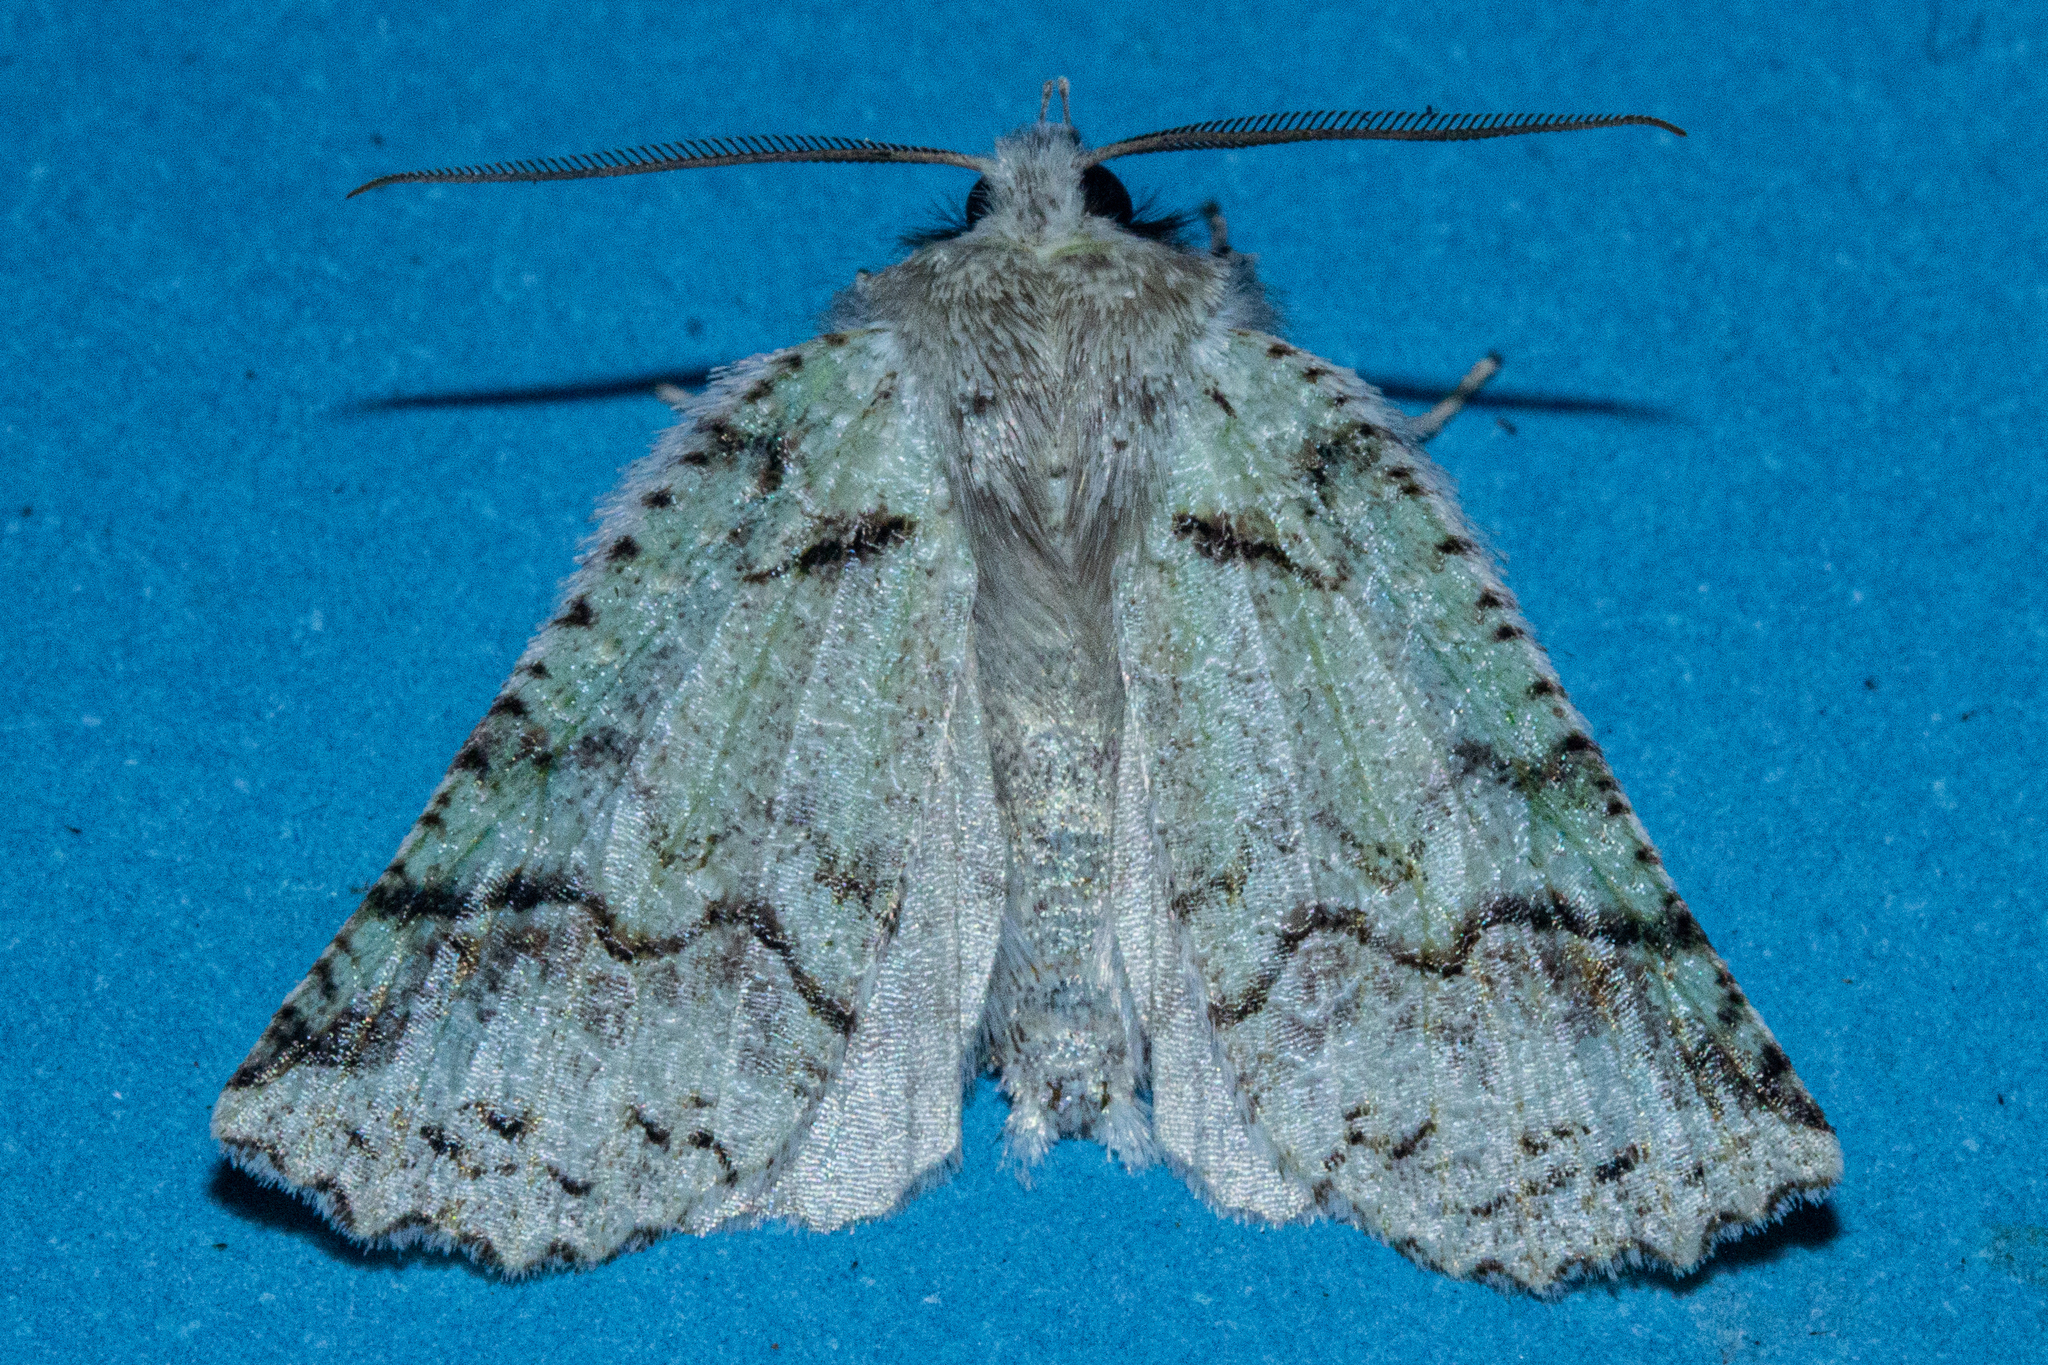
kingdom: Animalia
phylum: Arthropoda
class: Insecta
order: Lepidoptera
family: Geometridae
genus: Declana
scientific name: Declana floccosa
